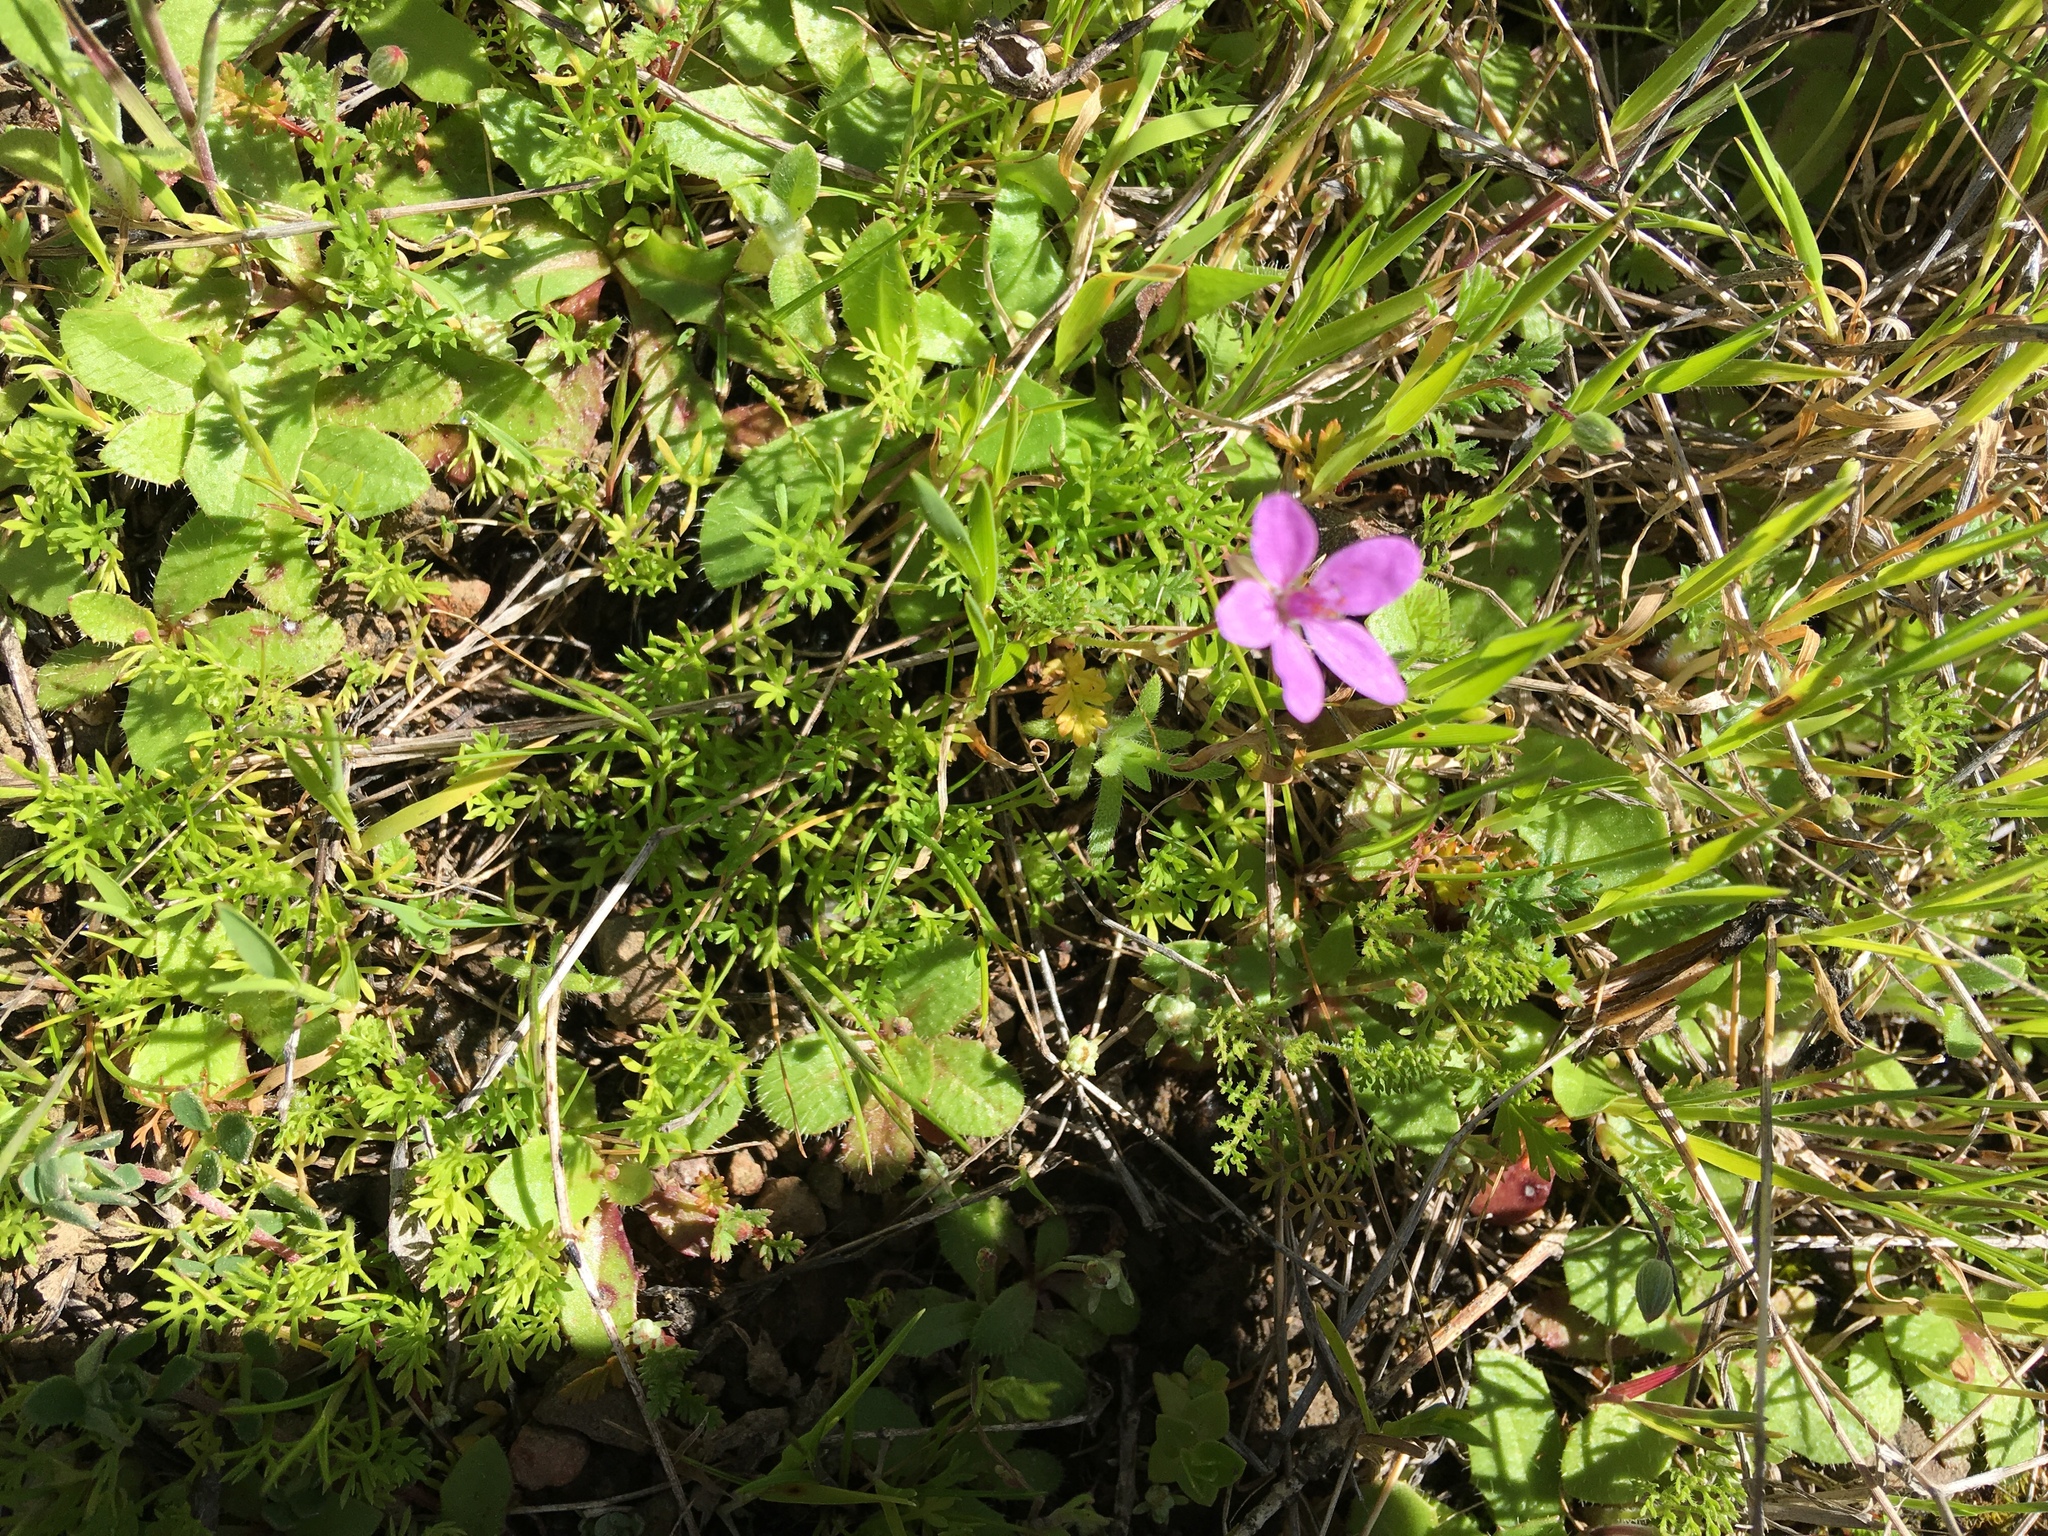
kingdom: Plantae
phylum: Tracheophyta
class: Magnoliopsida
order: Geraniales
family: Geraniaceae
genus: Erodium
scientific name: Erodium cicutarium
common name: Common stork's-bill
